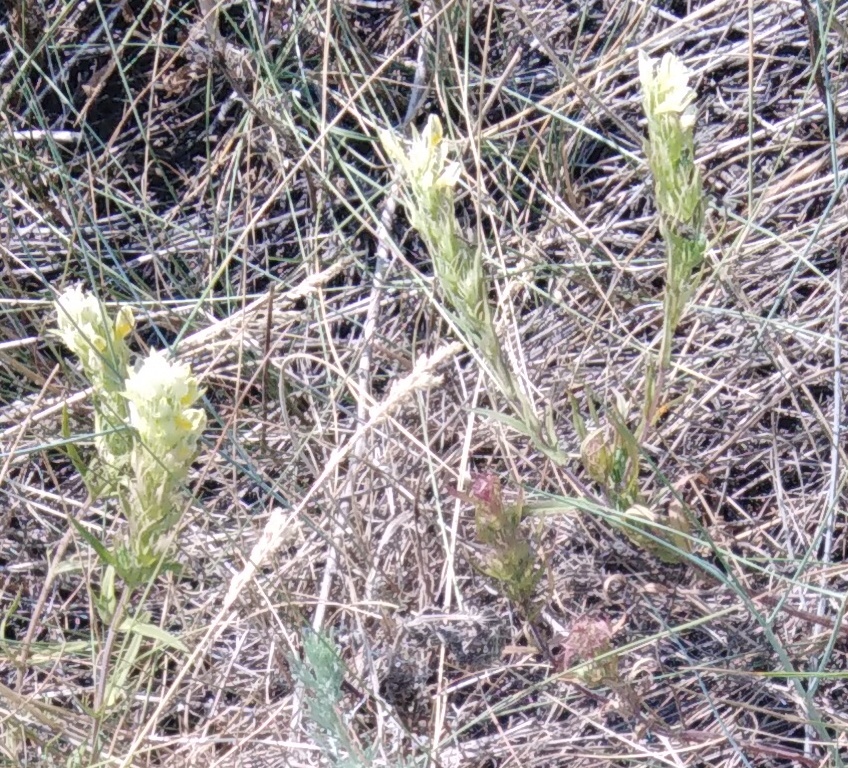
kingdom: Plantae
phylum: Tracheophyta
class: Magnoliopsida
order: Lamiales
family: Orobanchaceae
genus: Melampyrum
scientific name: Melampyrum arvense
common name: Field cow-wheat
